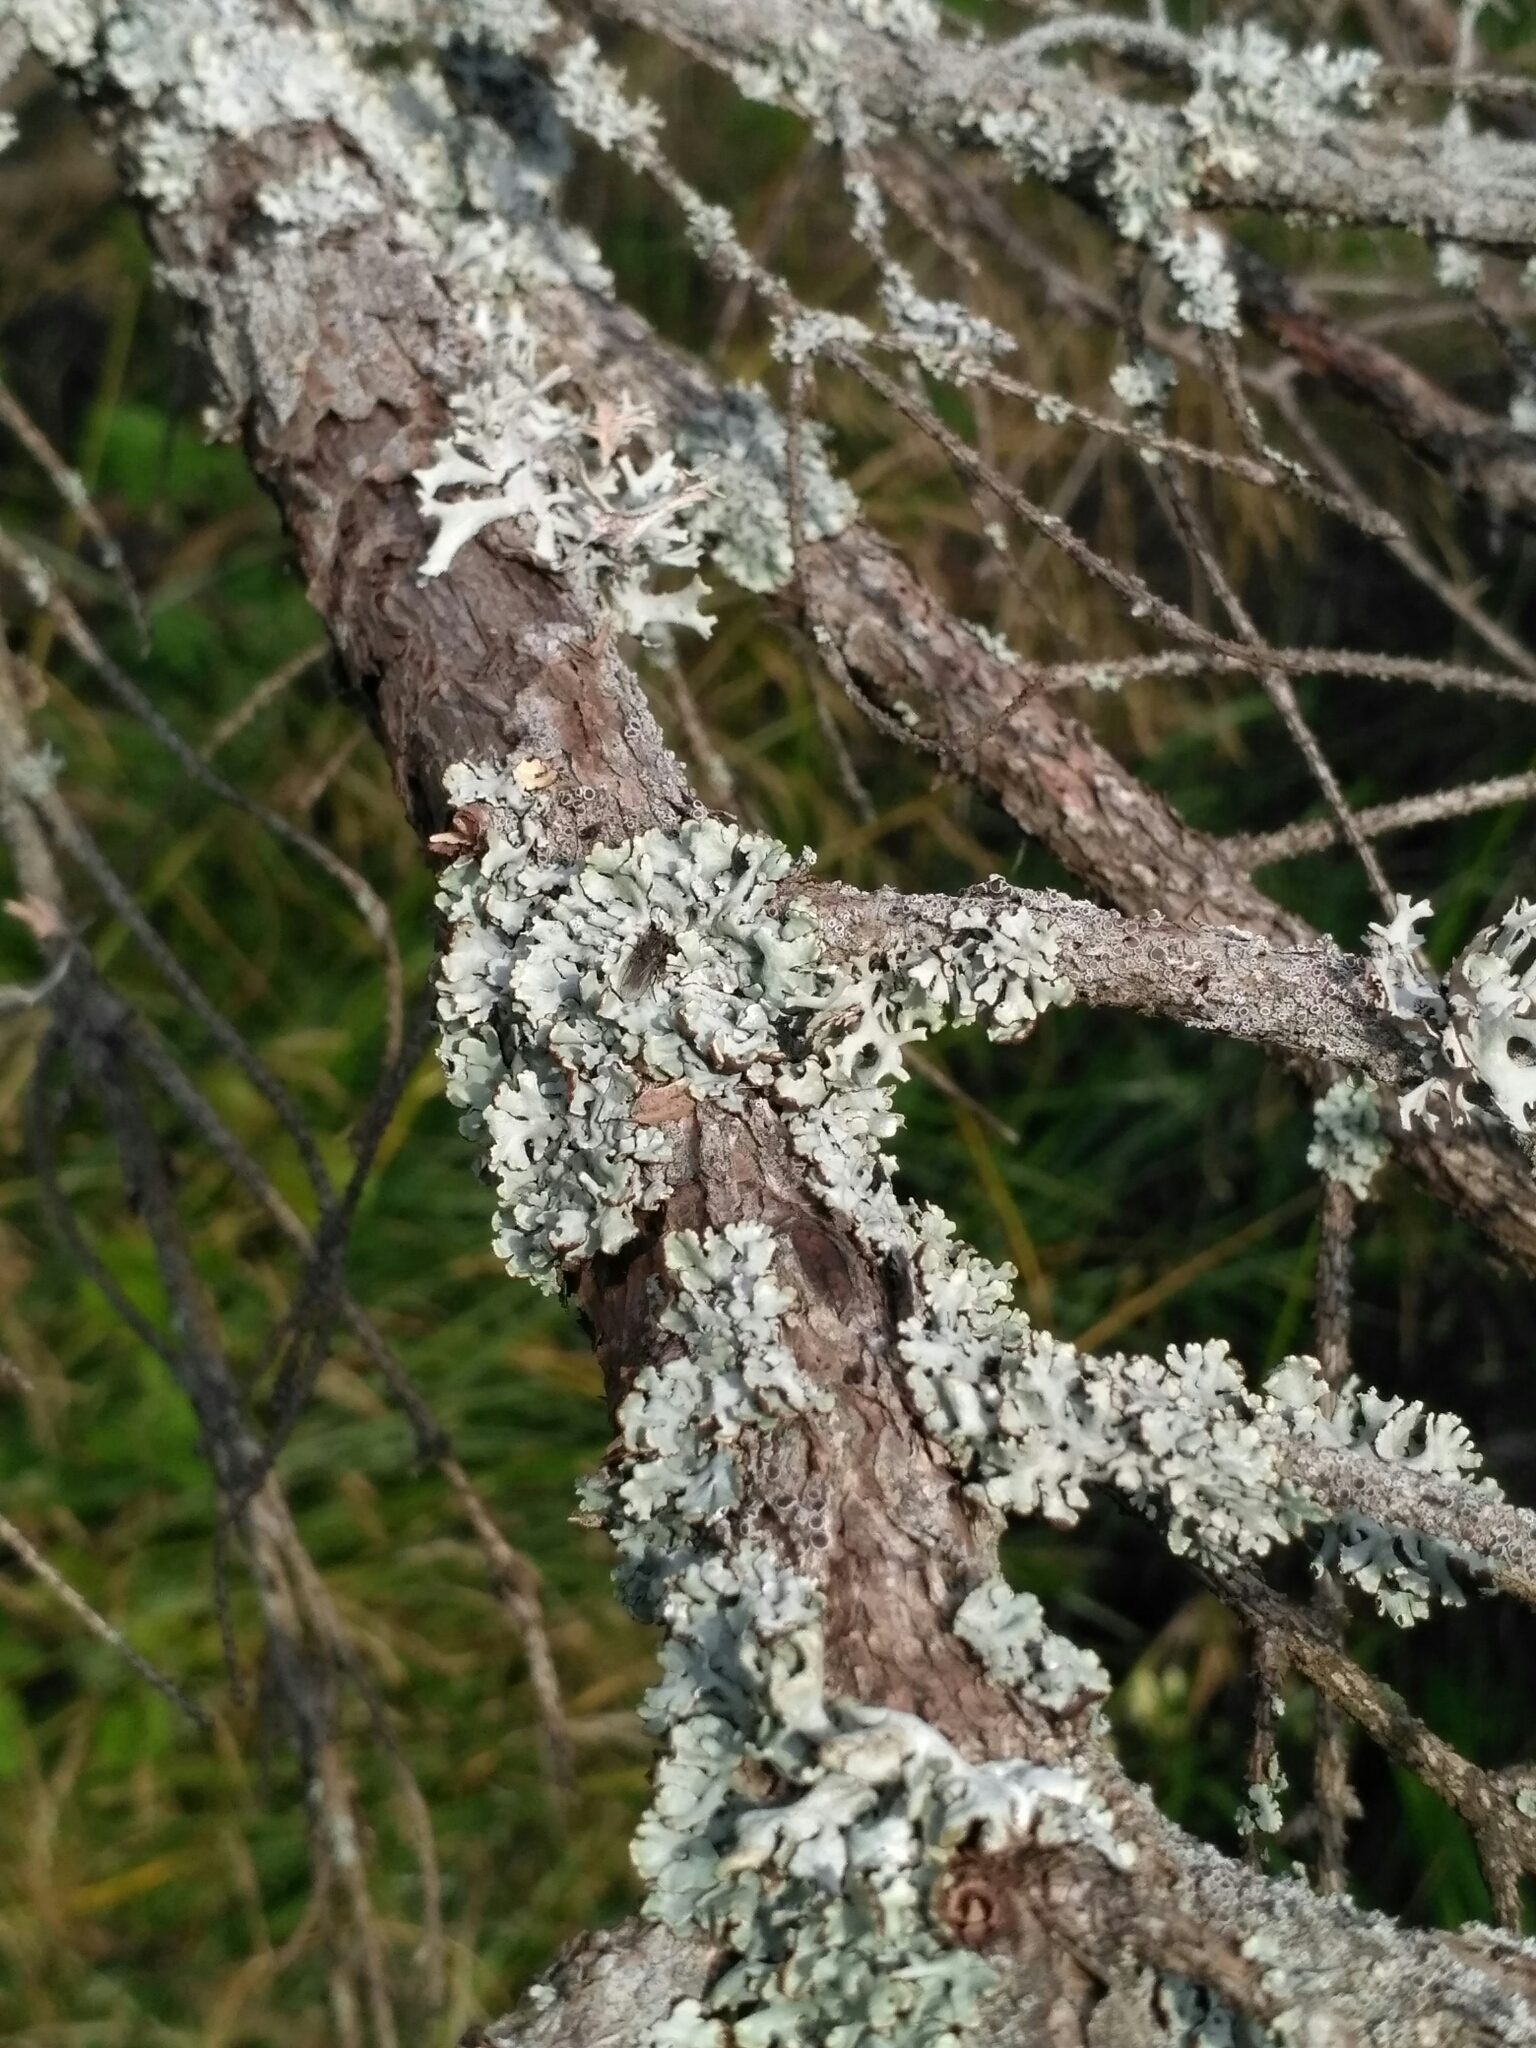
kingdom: Fungi
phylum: Ascomycota
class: Lecanoromycetes
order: Lecanorales
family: Parmeliaceae
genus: Hypogymnia
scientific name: Hypogymnia physodes
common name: Dark crottle
